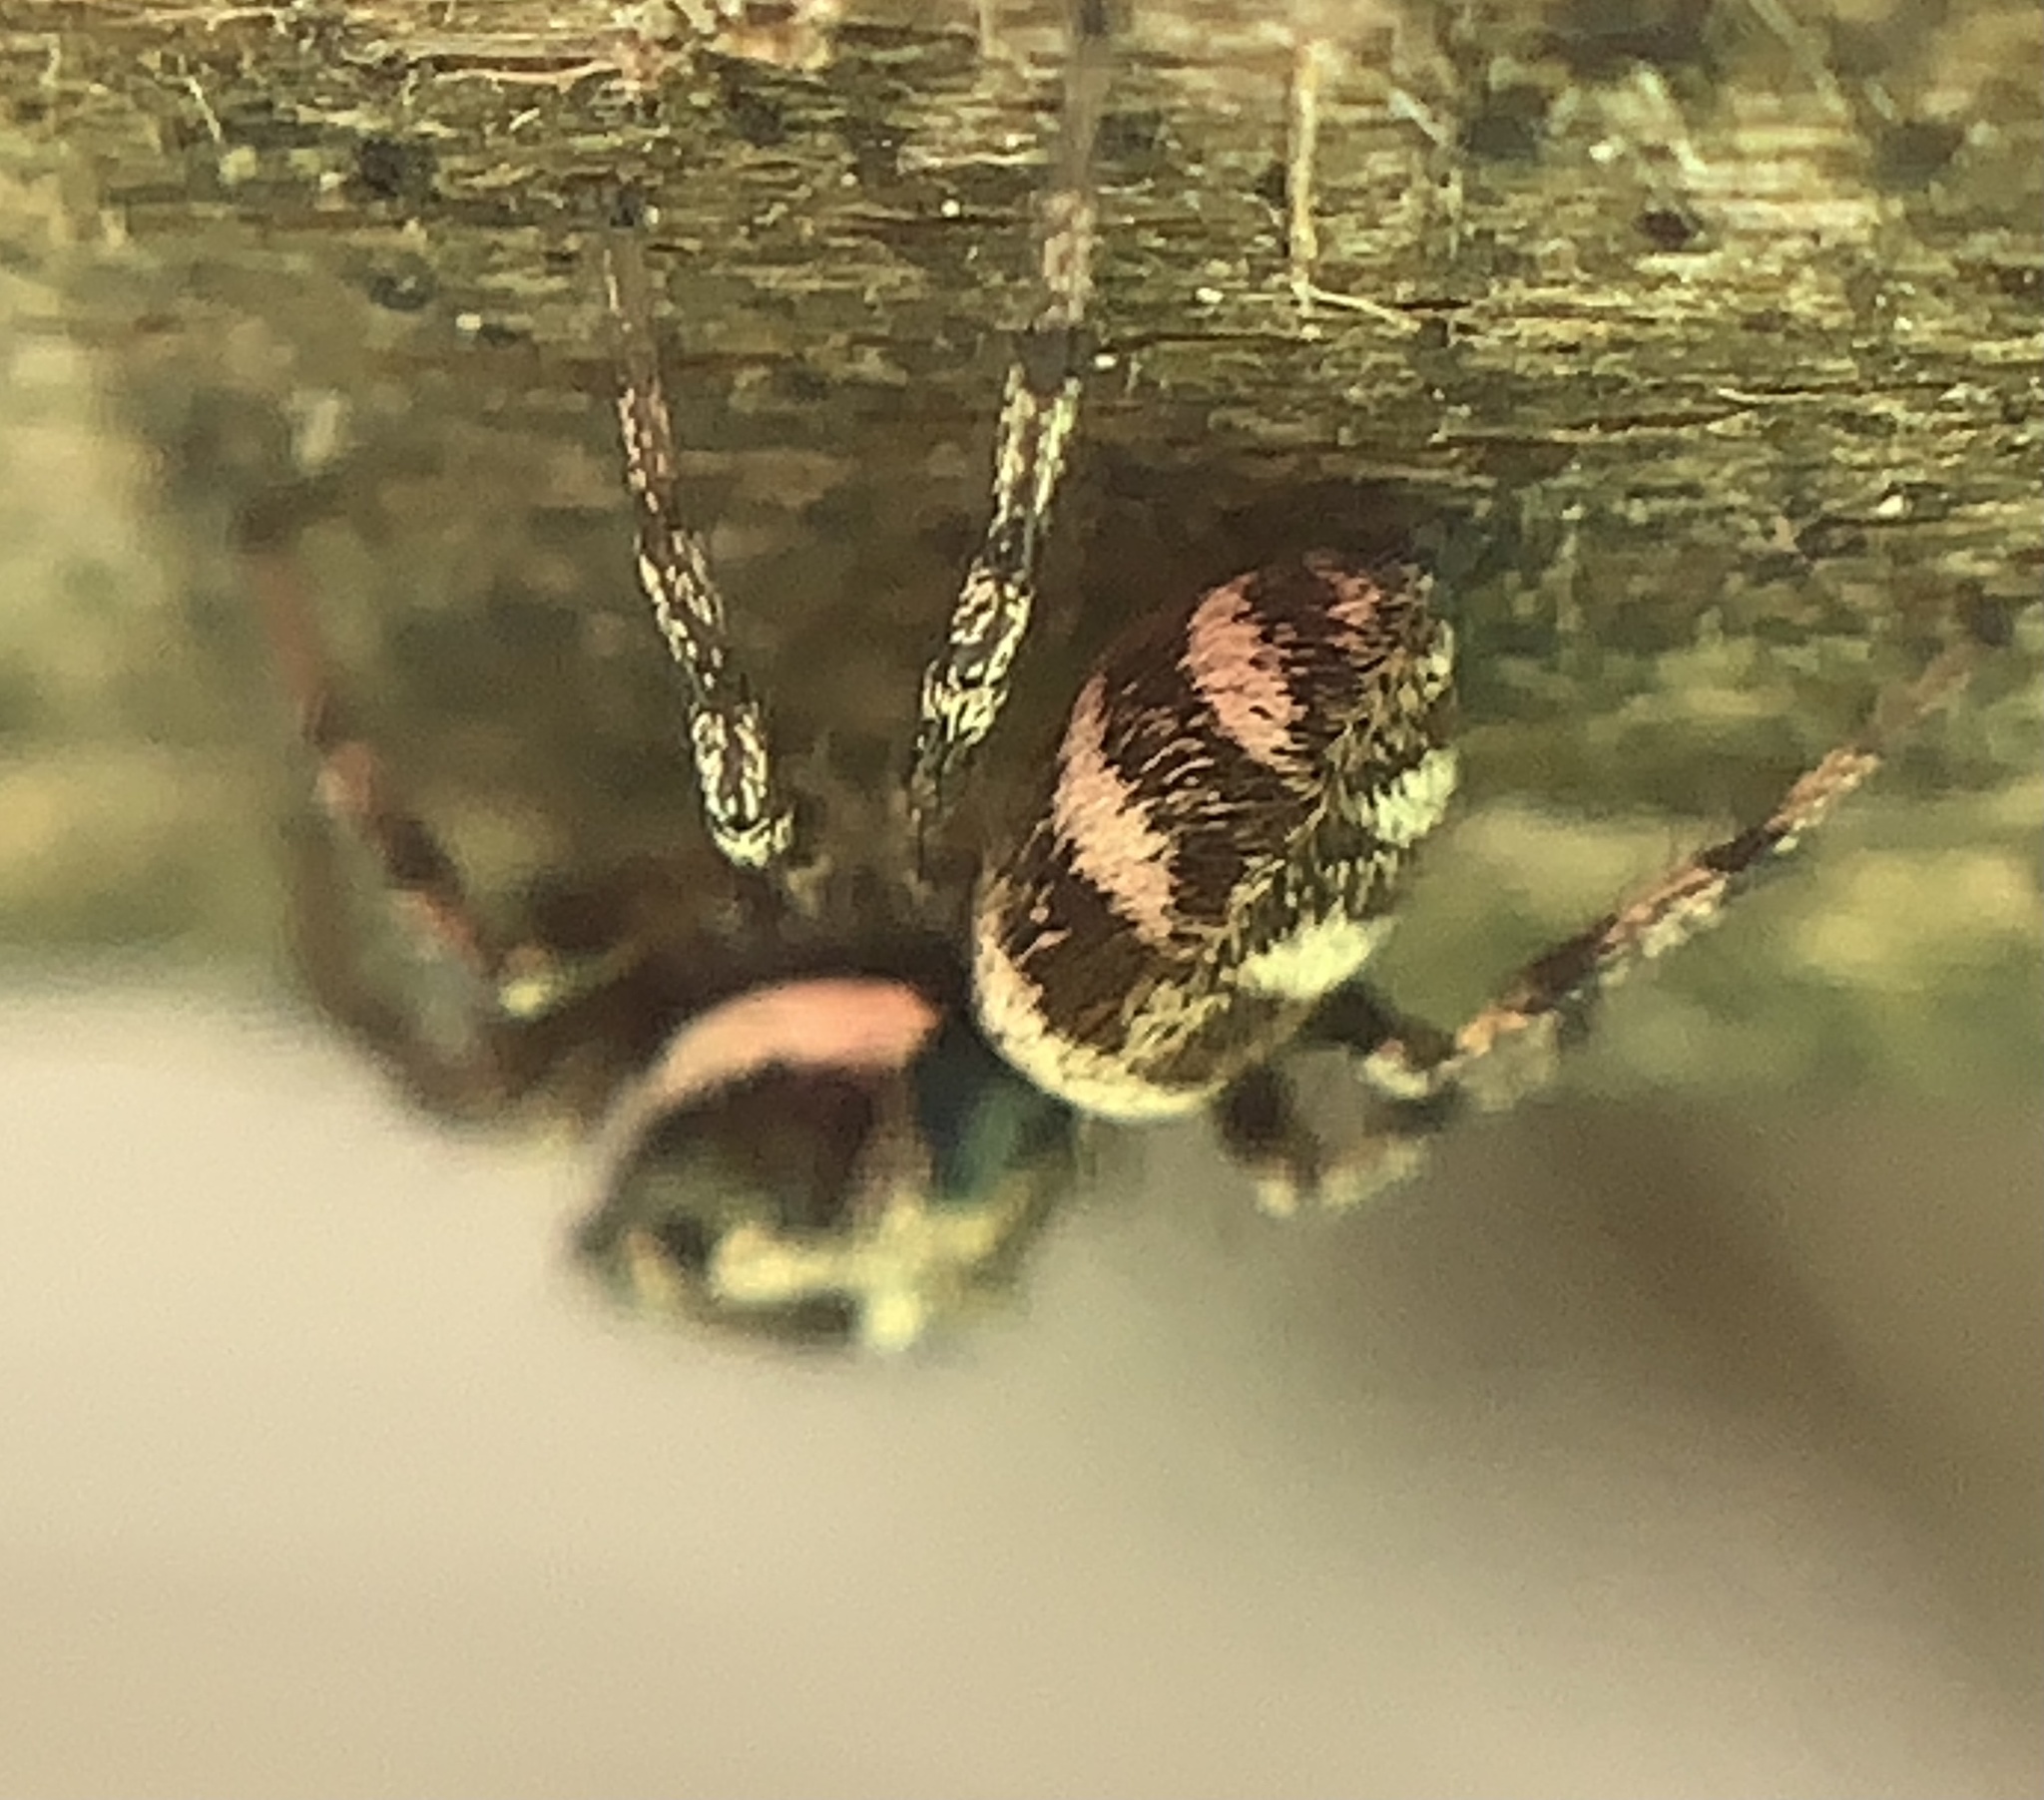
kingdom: Animalia
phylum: Arthropoda
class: Arachnida
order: Araneae
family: Salticidae
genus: Salticus
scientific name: Salticus scenicus
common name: Zebra jumper
